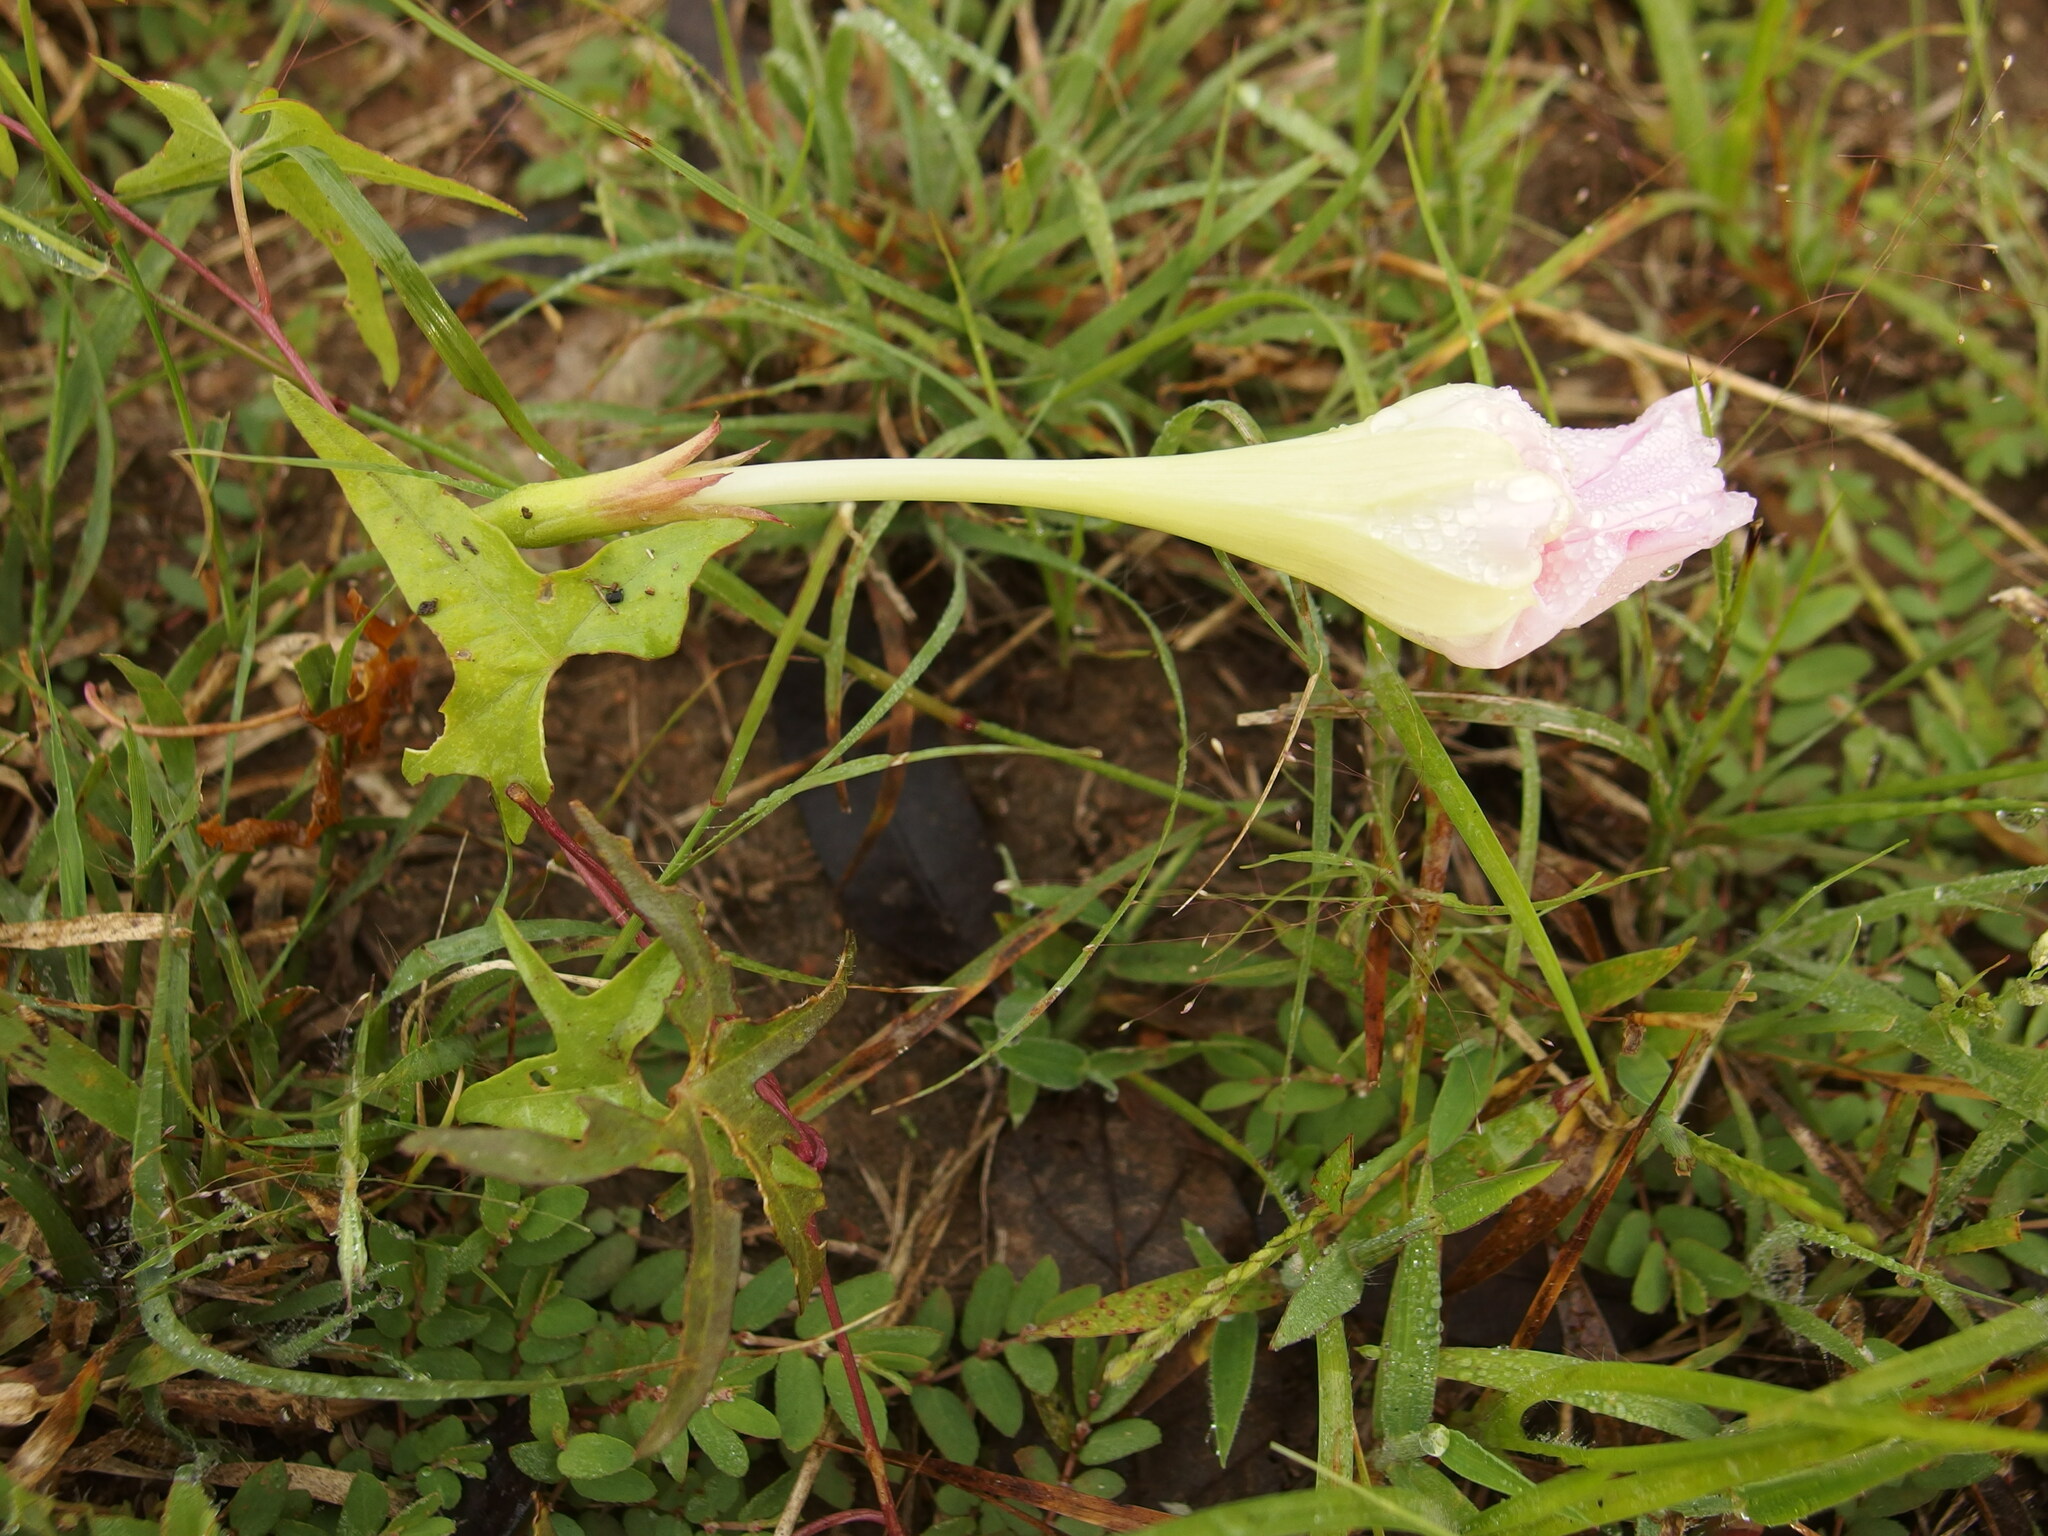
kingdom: Plantae
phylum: Tracheophyta
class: Magnoliopsida
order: Solanales
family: Convolvulaceae
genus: Ipomoea
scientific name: Ipomoea thurberi
